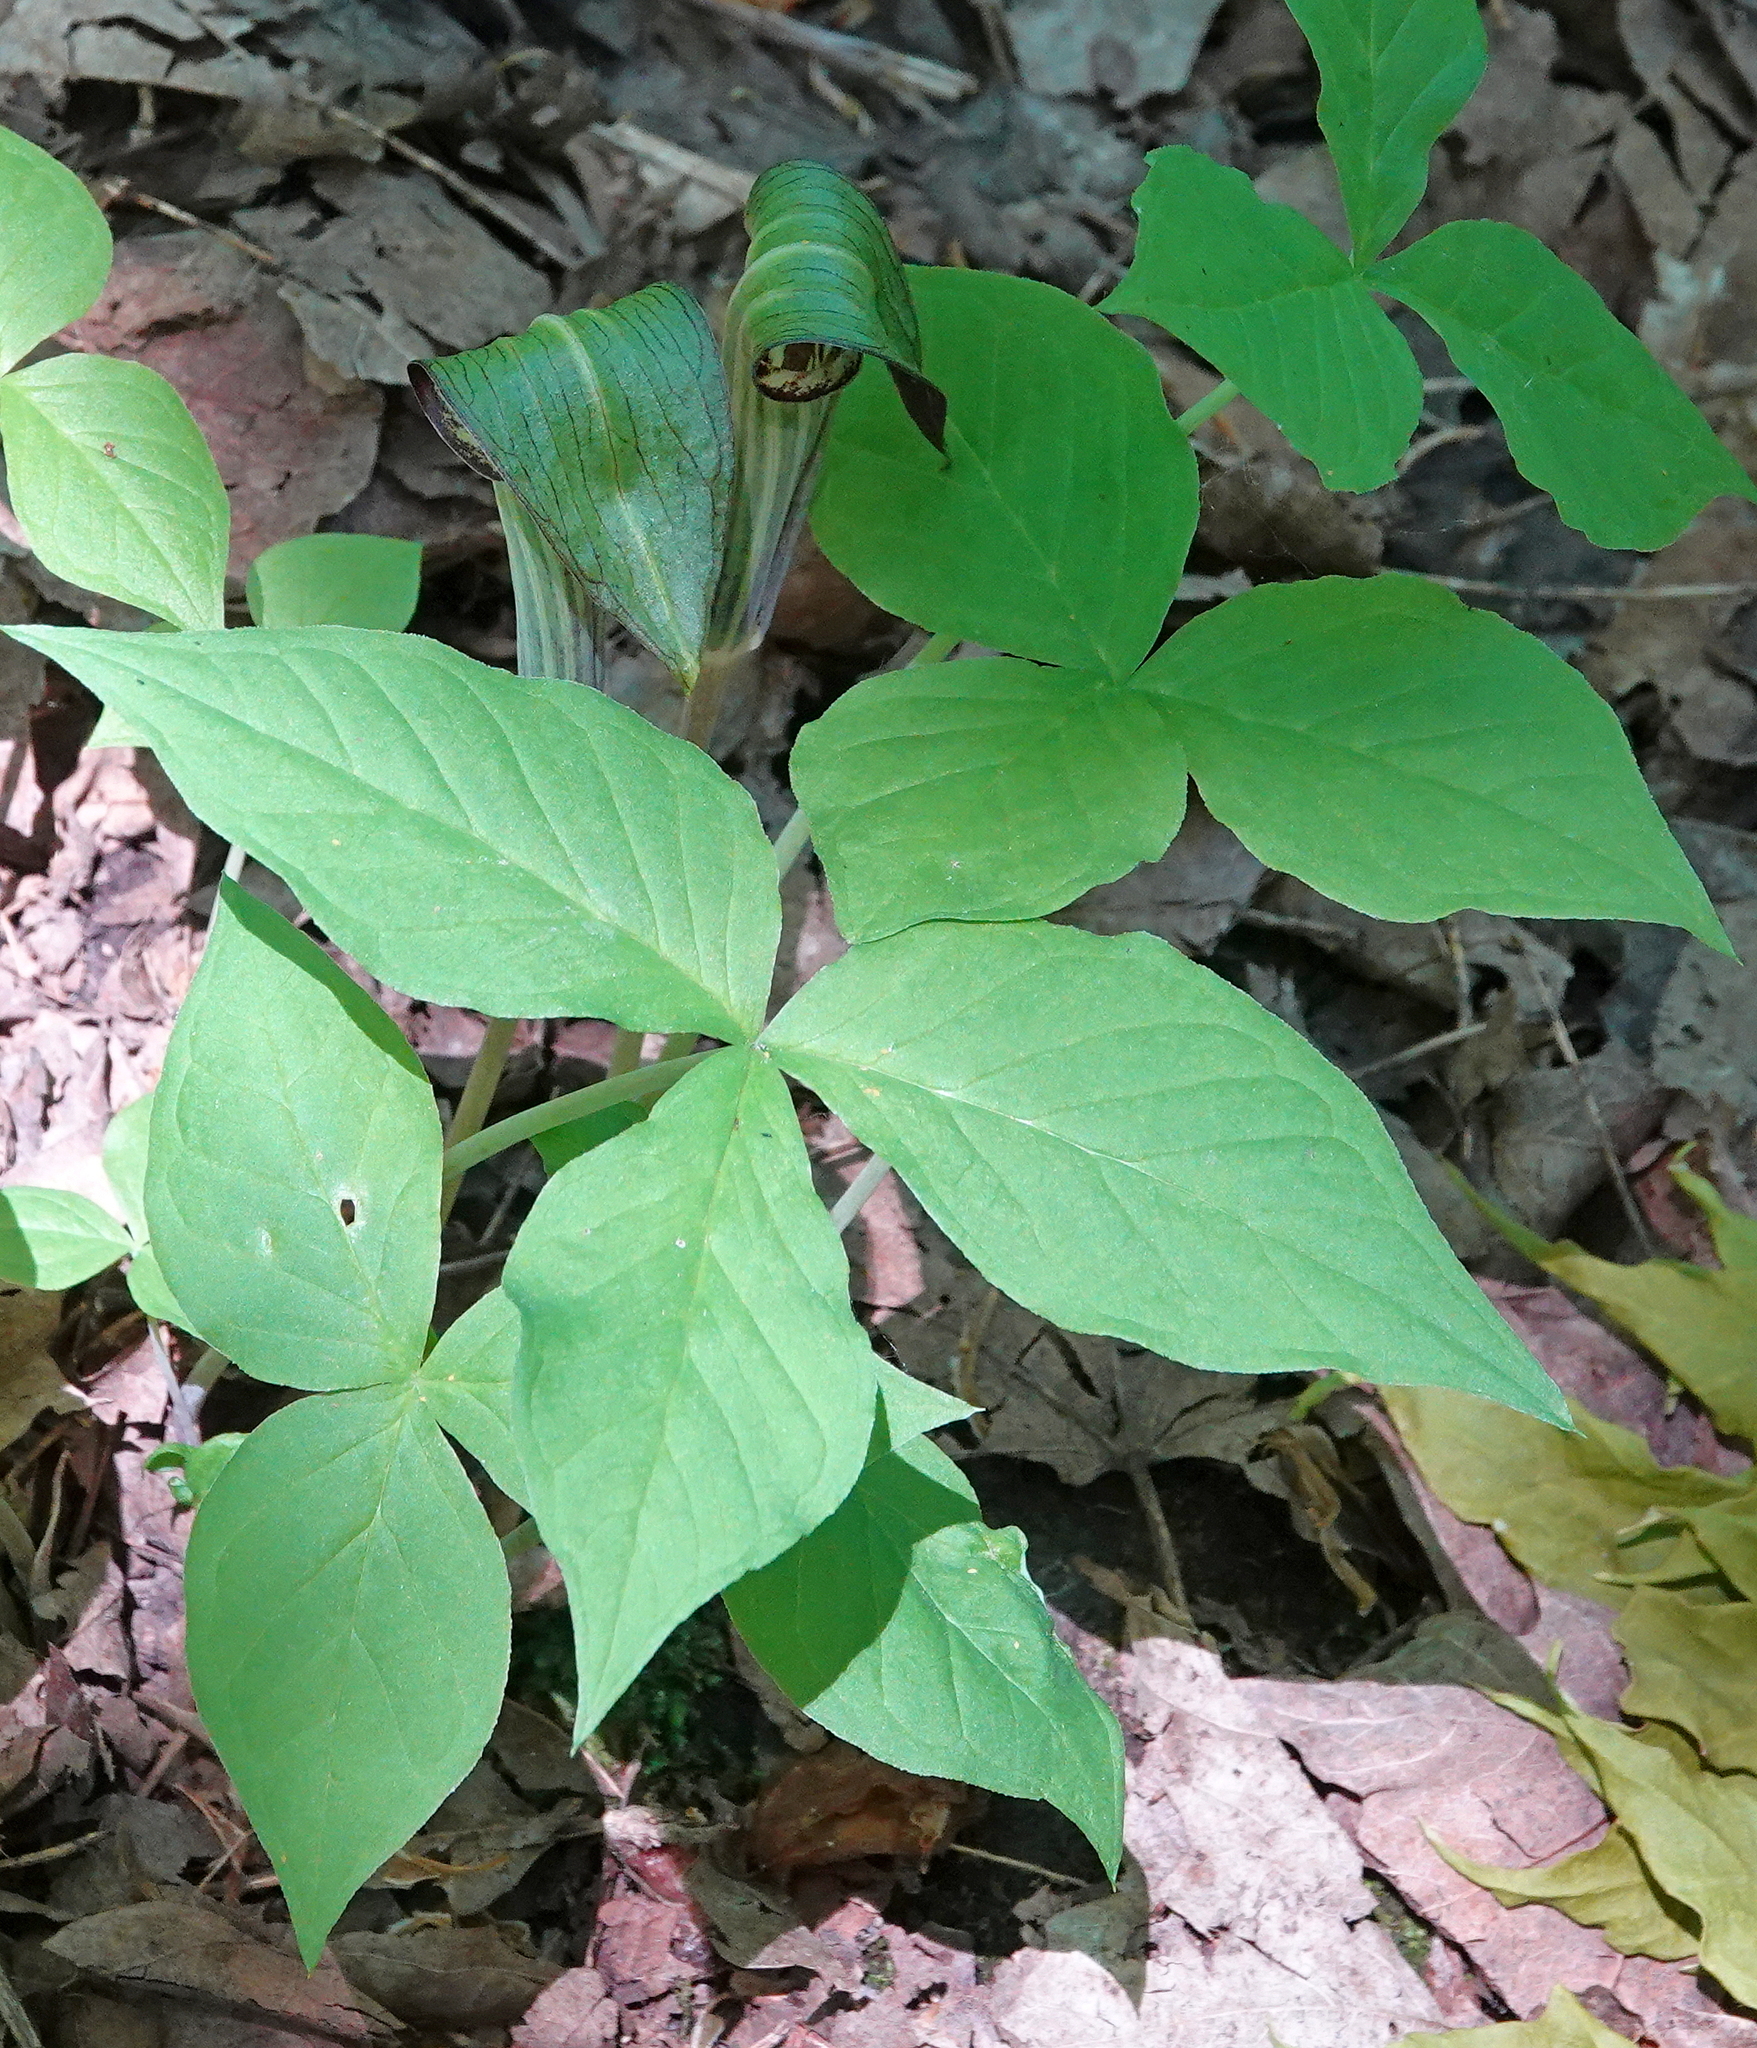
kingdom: Plantae
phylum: Tracheophyta
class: Liliopsida
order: Alismatales
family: Araceae
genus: Arisaema
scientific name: Arisaema triphyllum
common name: Jack-in-the-pulpit
